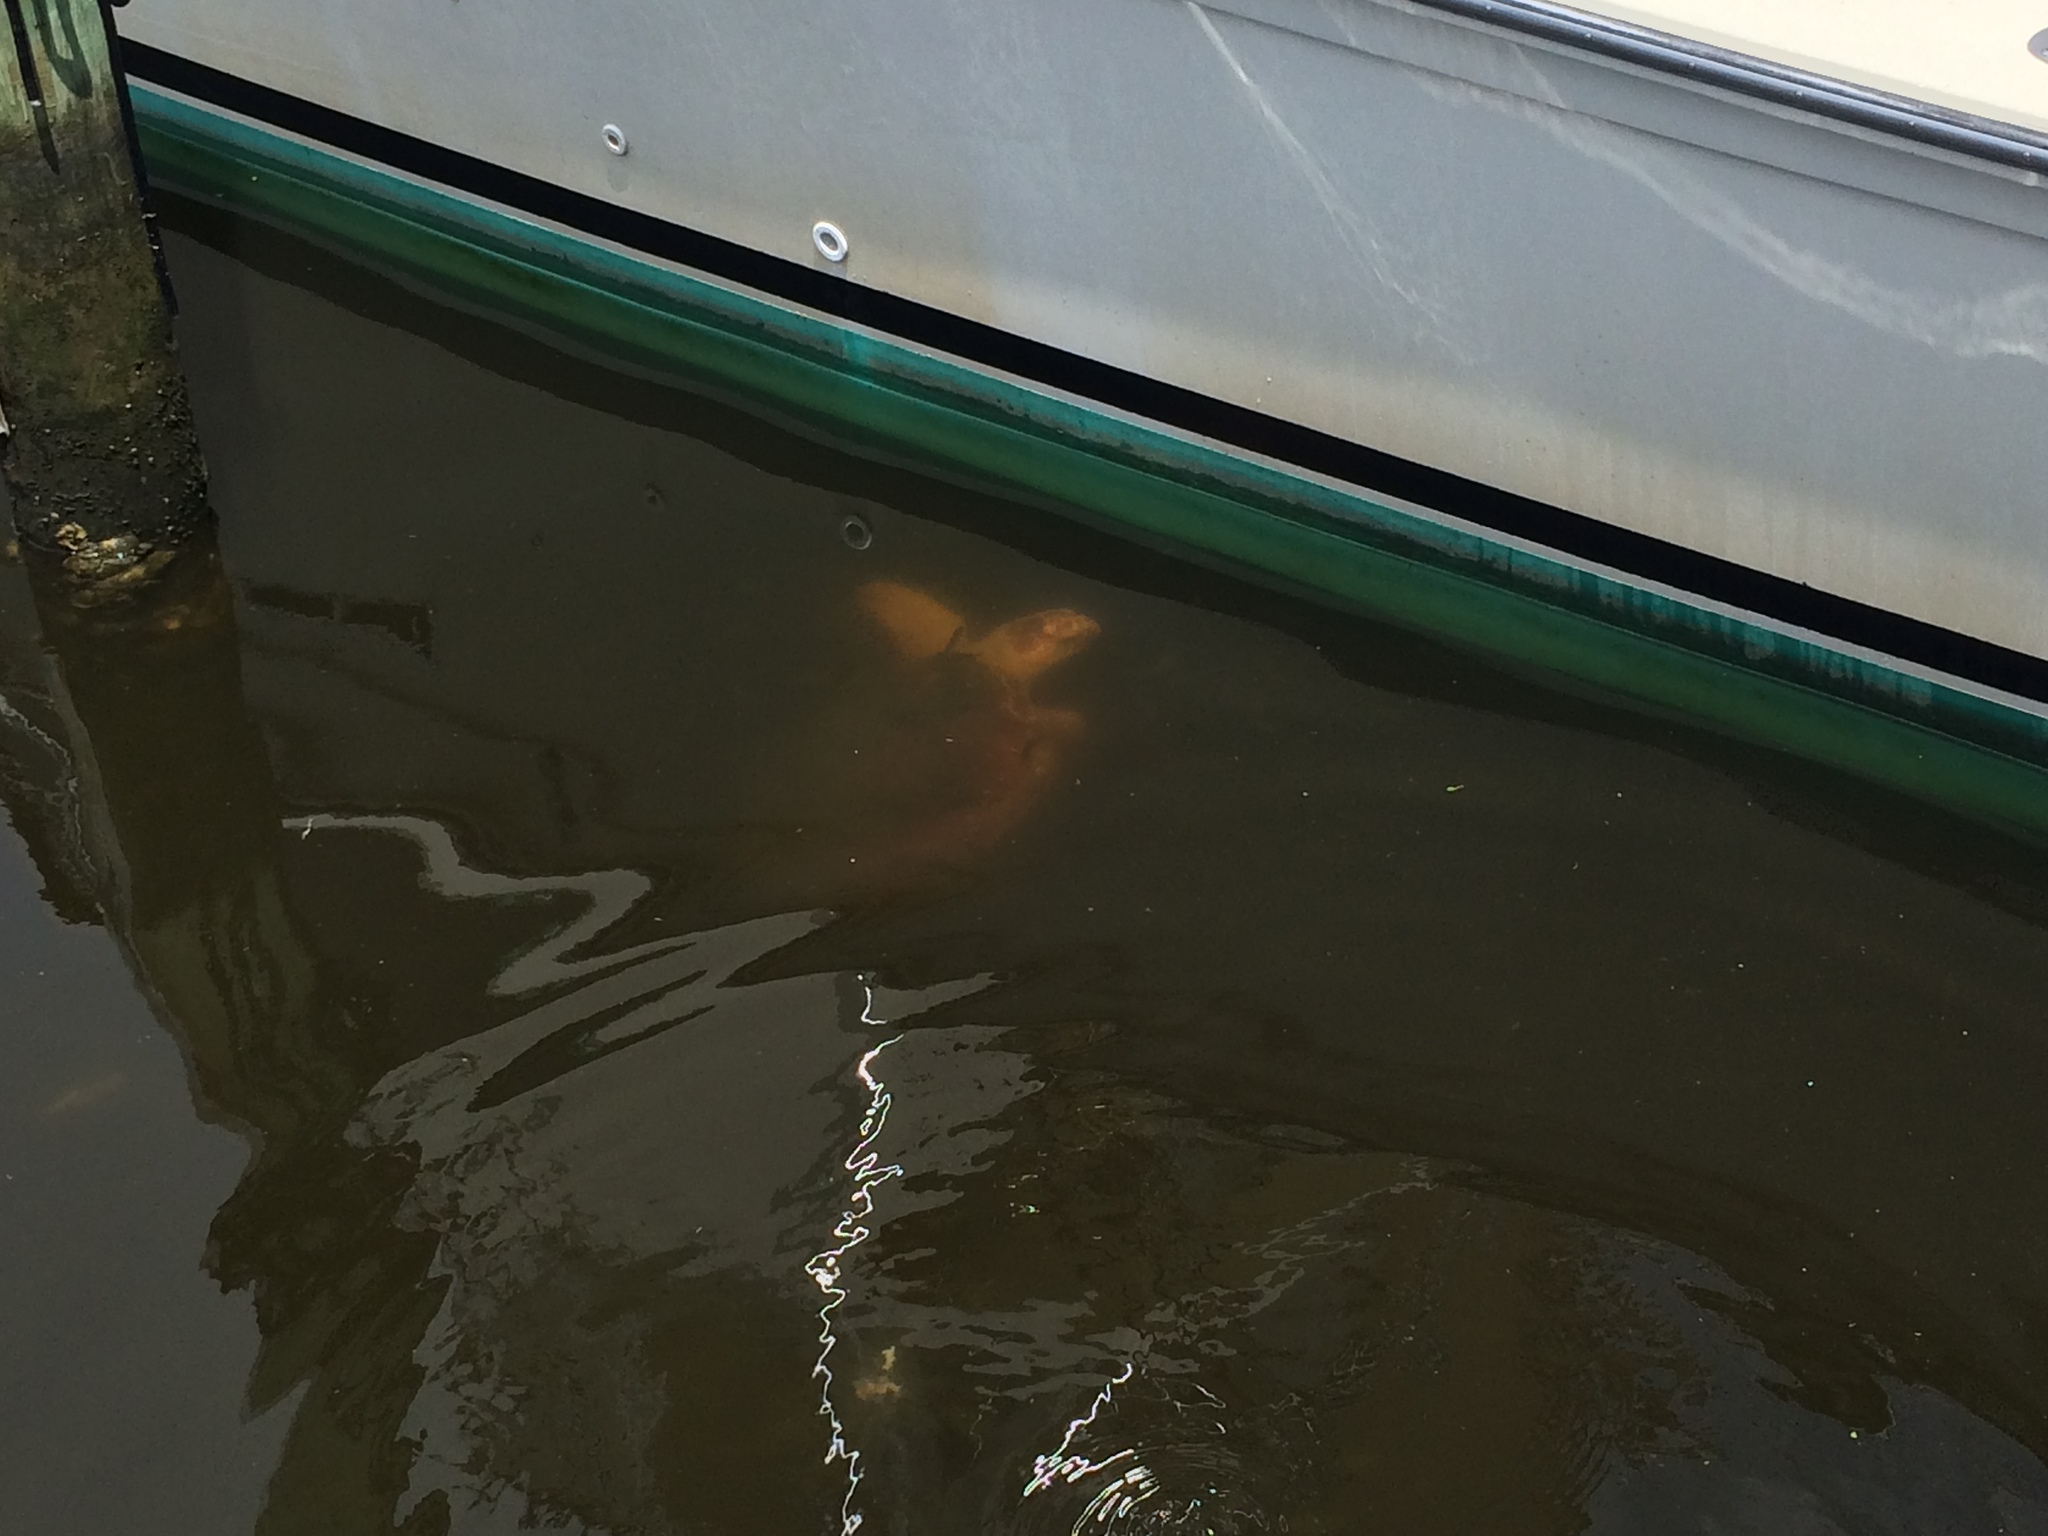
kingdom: Animalia
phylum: Chordata
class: Testudines
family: Cheloniidae
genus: Caretta
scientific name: Caretta caretta
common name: Loggerhead sea turtle
